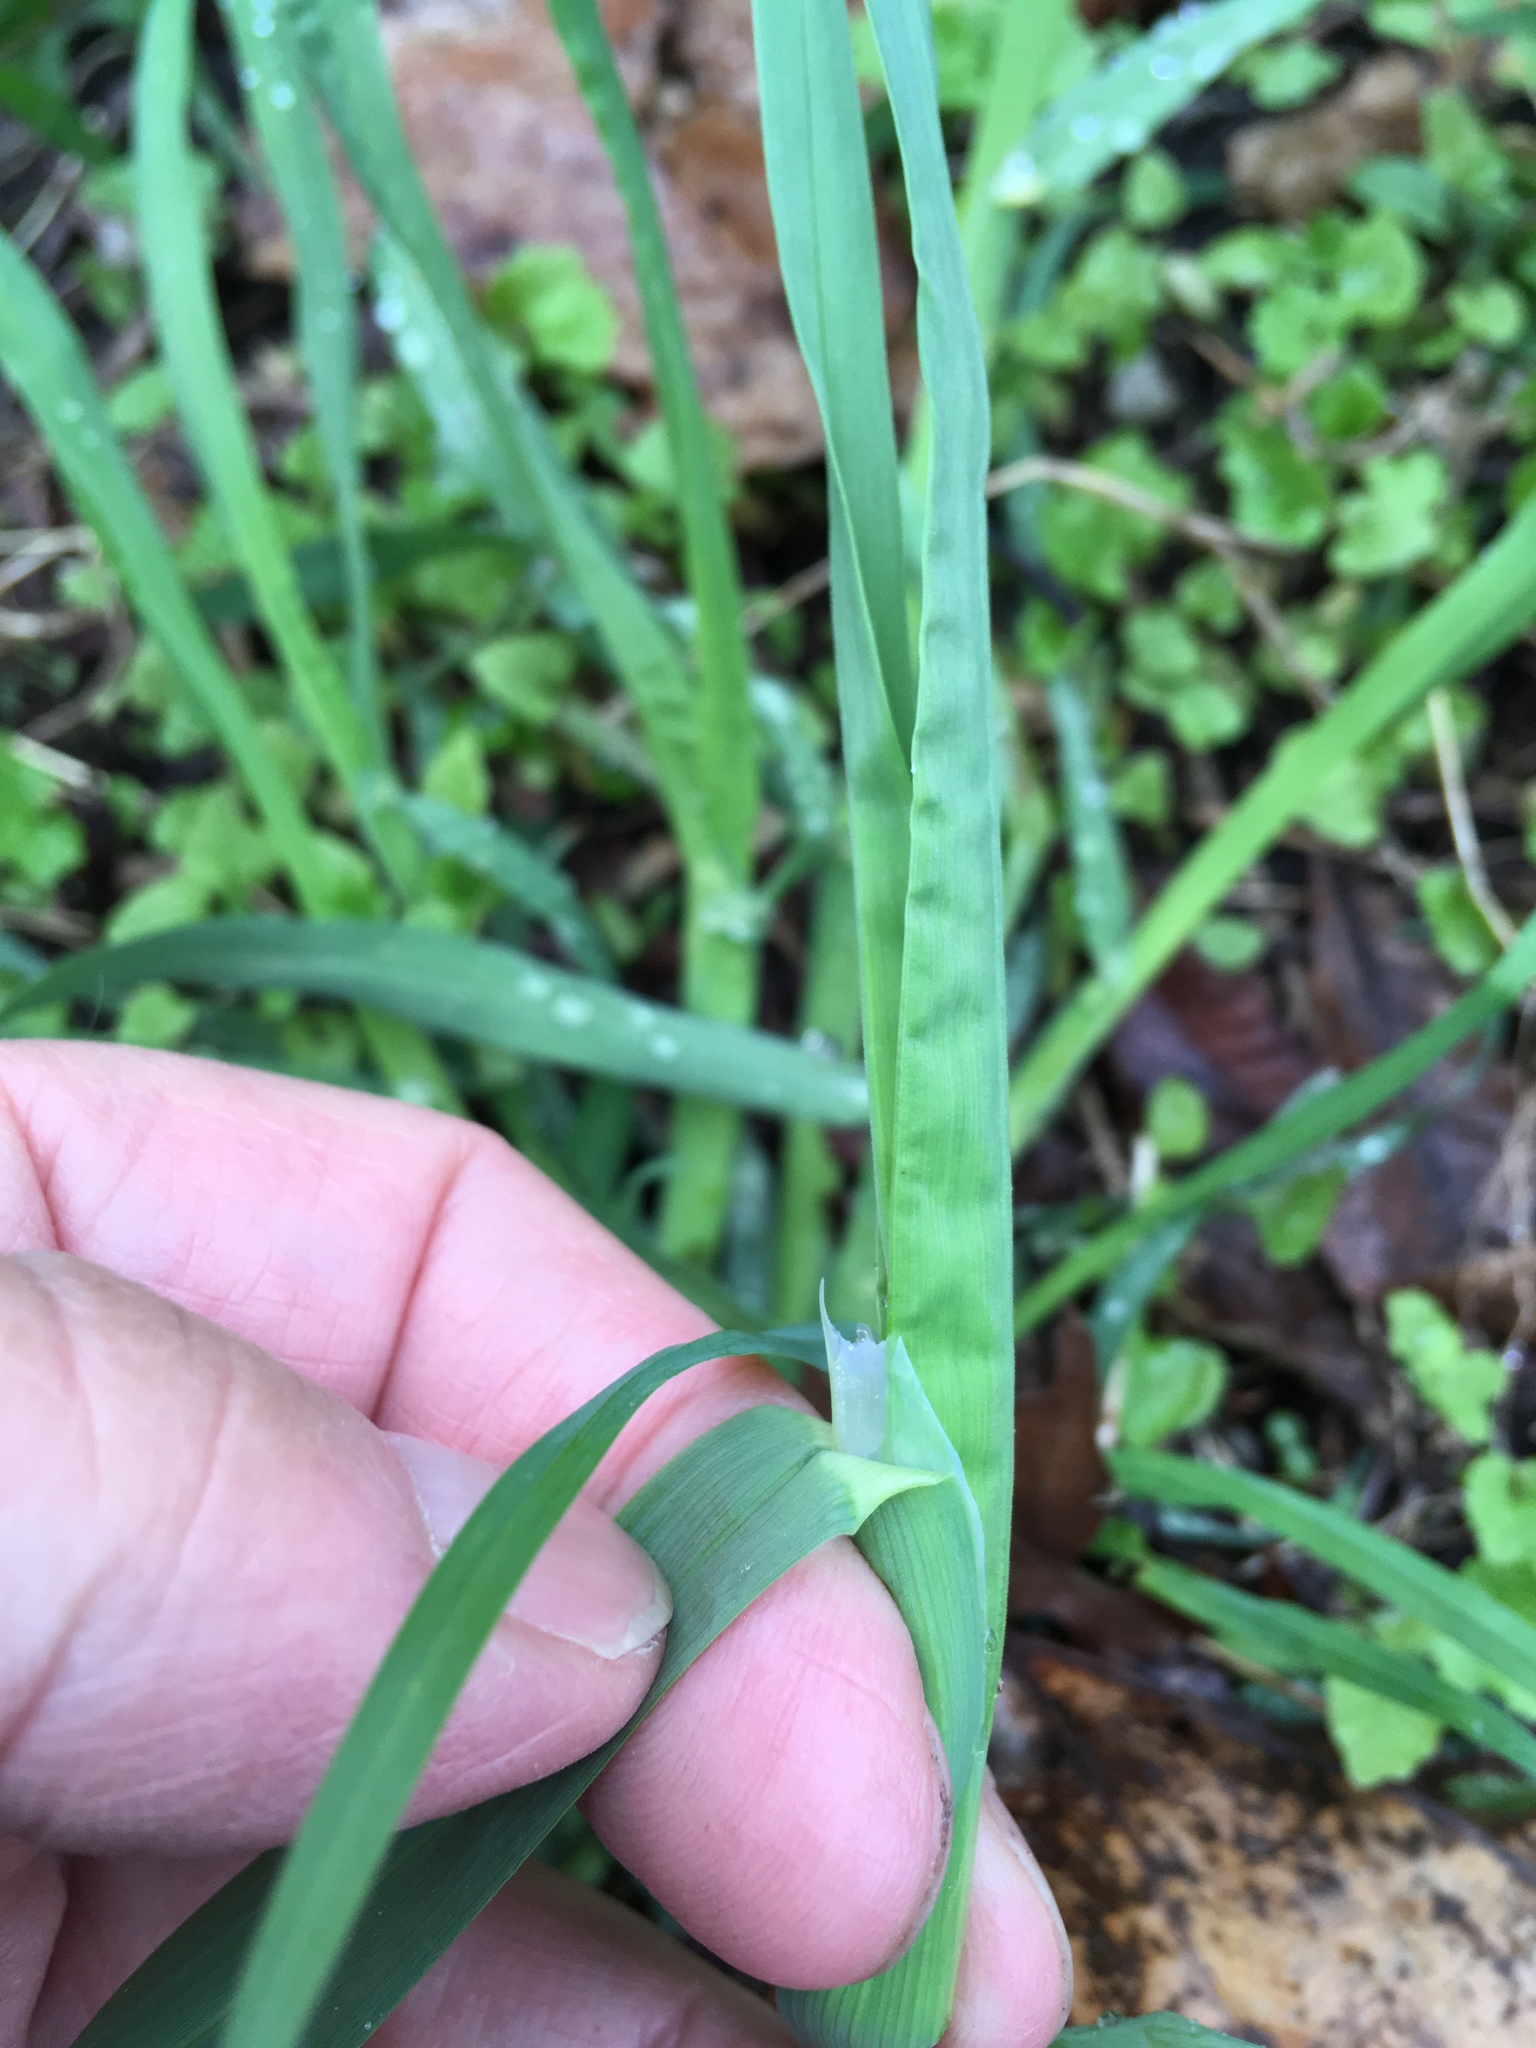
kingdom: Plantae
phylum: Tracheophyta
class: Liliopsida
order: Poales
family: Poaceae
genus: Dactylis
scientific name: Dactylis glomerata
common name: Orchardgrass
